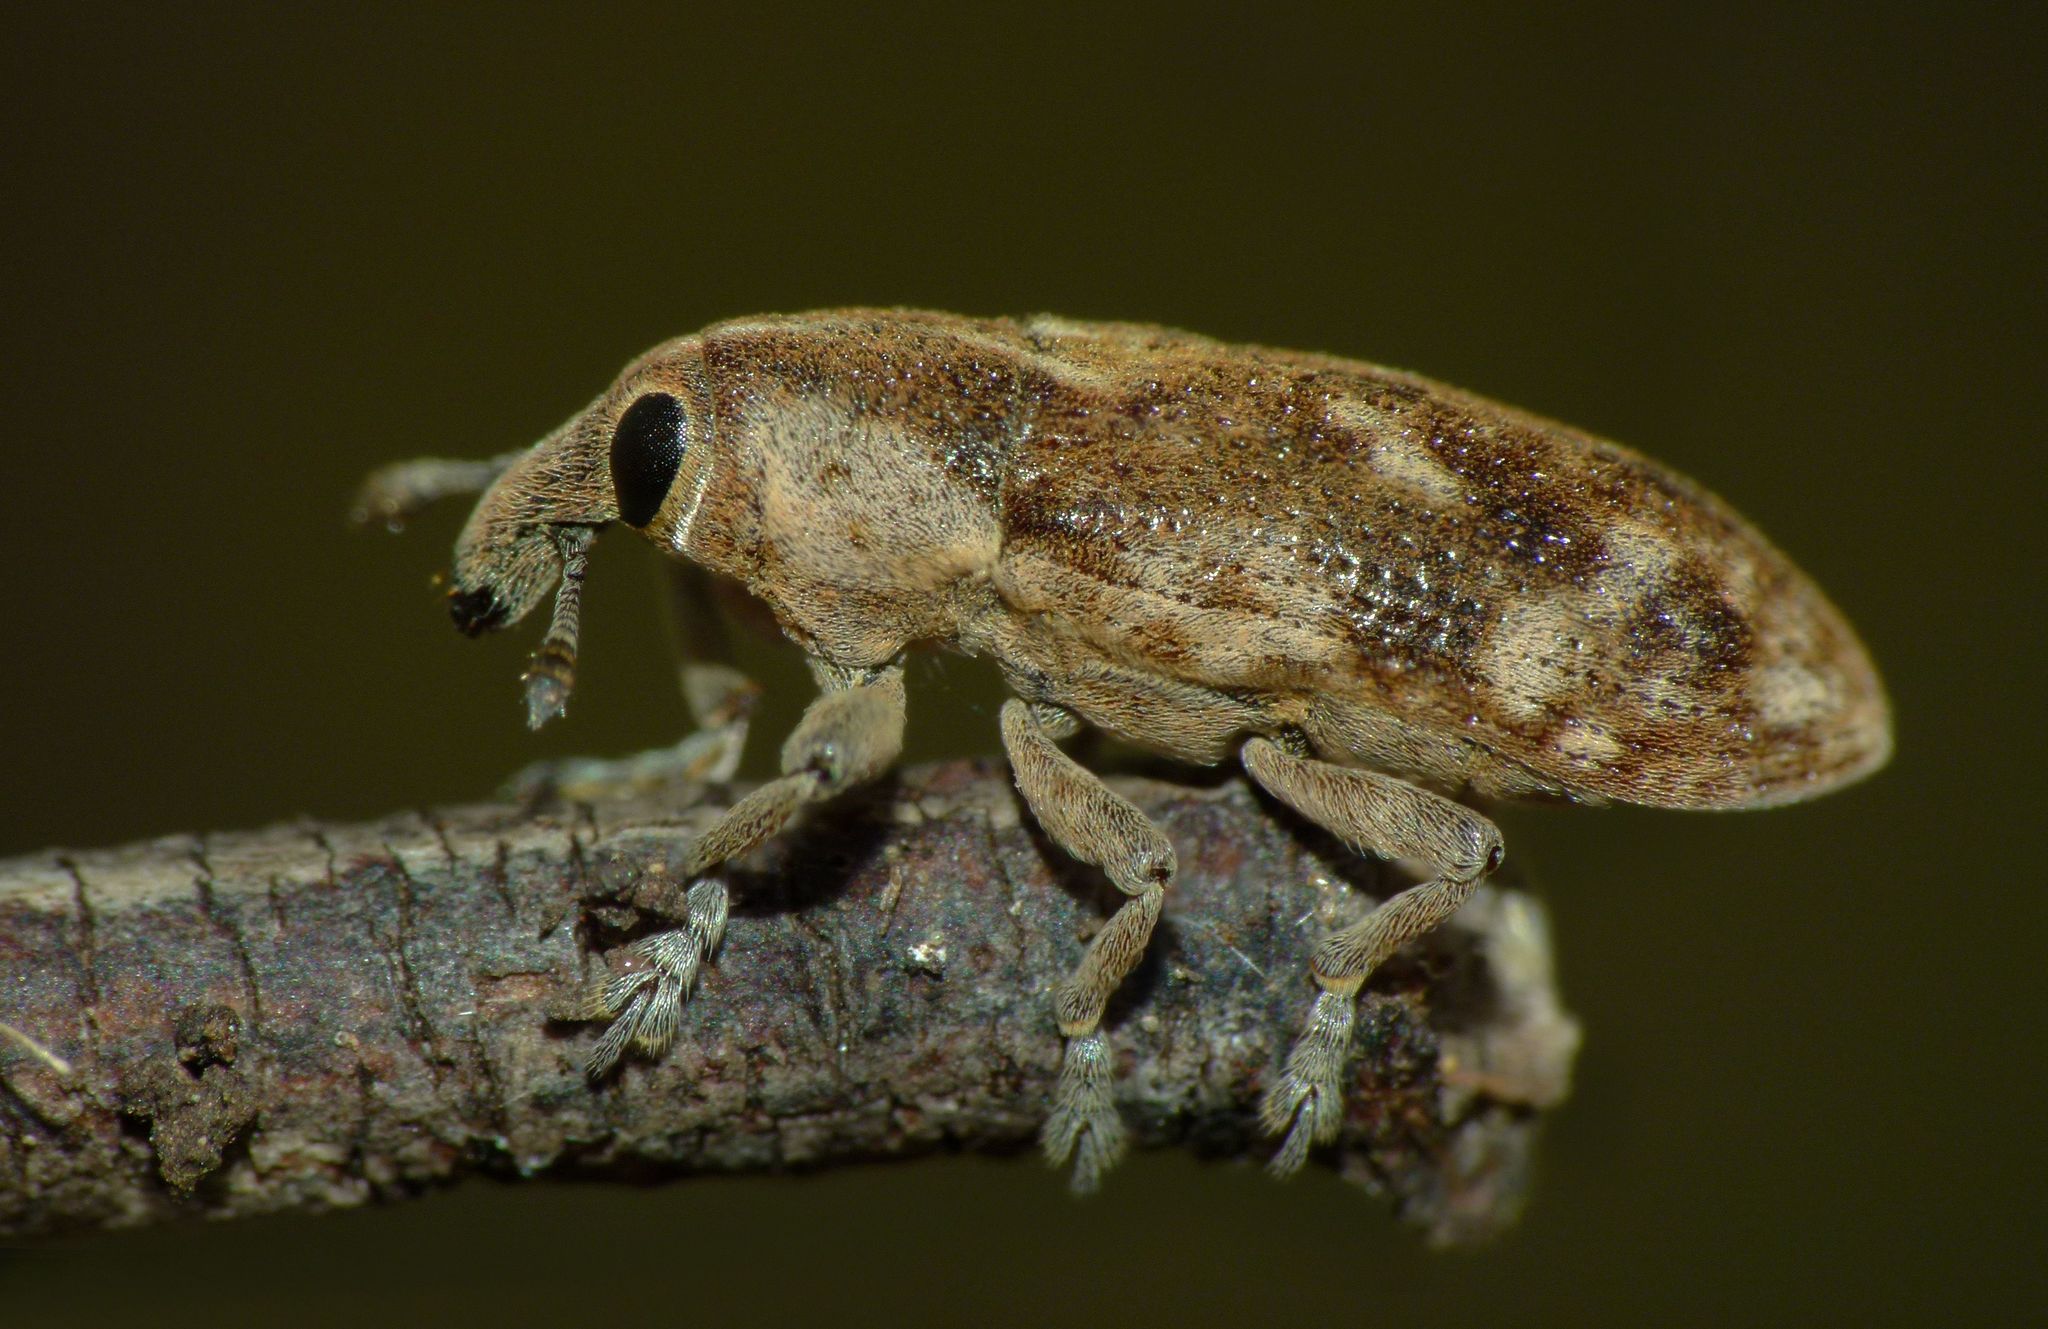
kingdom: Animalia
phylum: Arthropoda
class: Insecta
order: Coleoptera
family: Curculionidae
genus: Hypolixus
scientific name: Hypolixus
